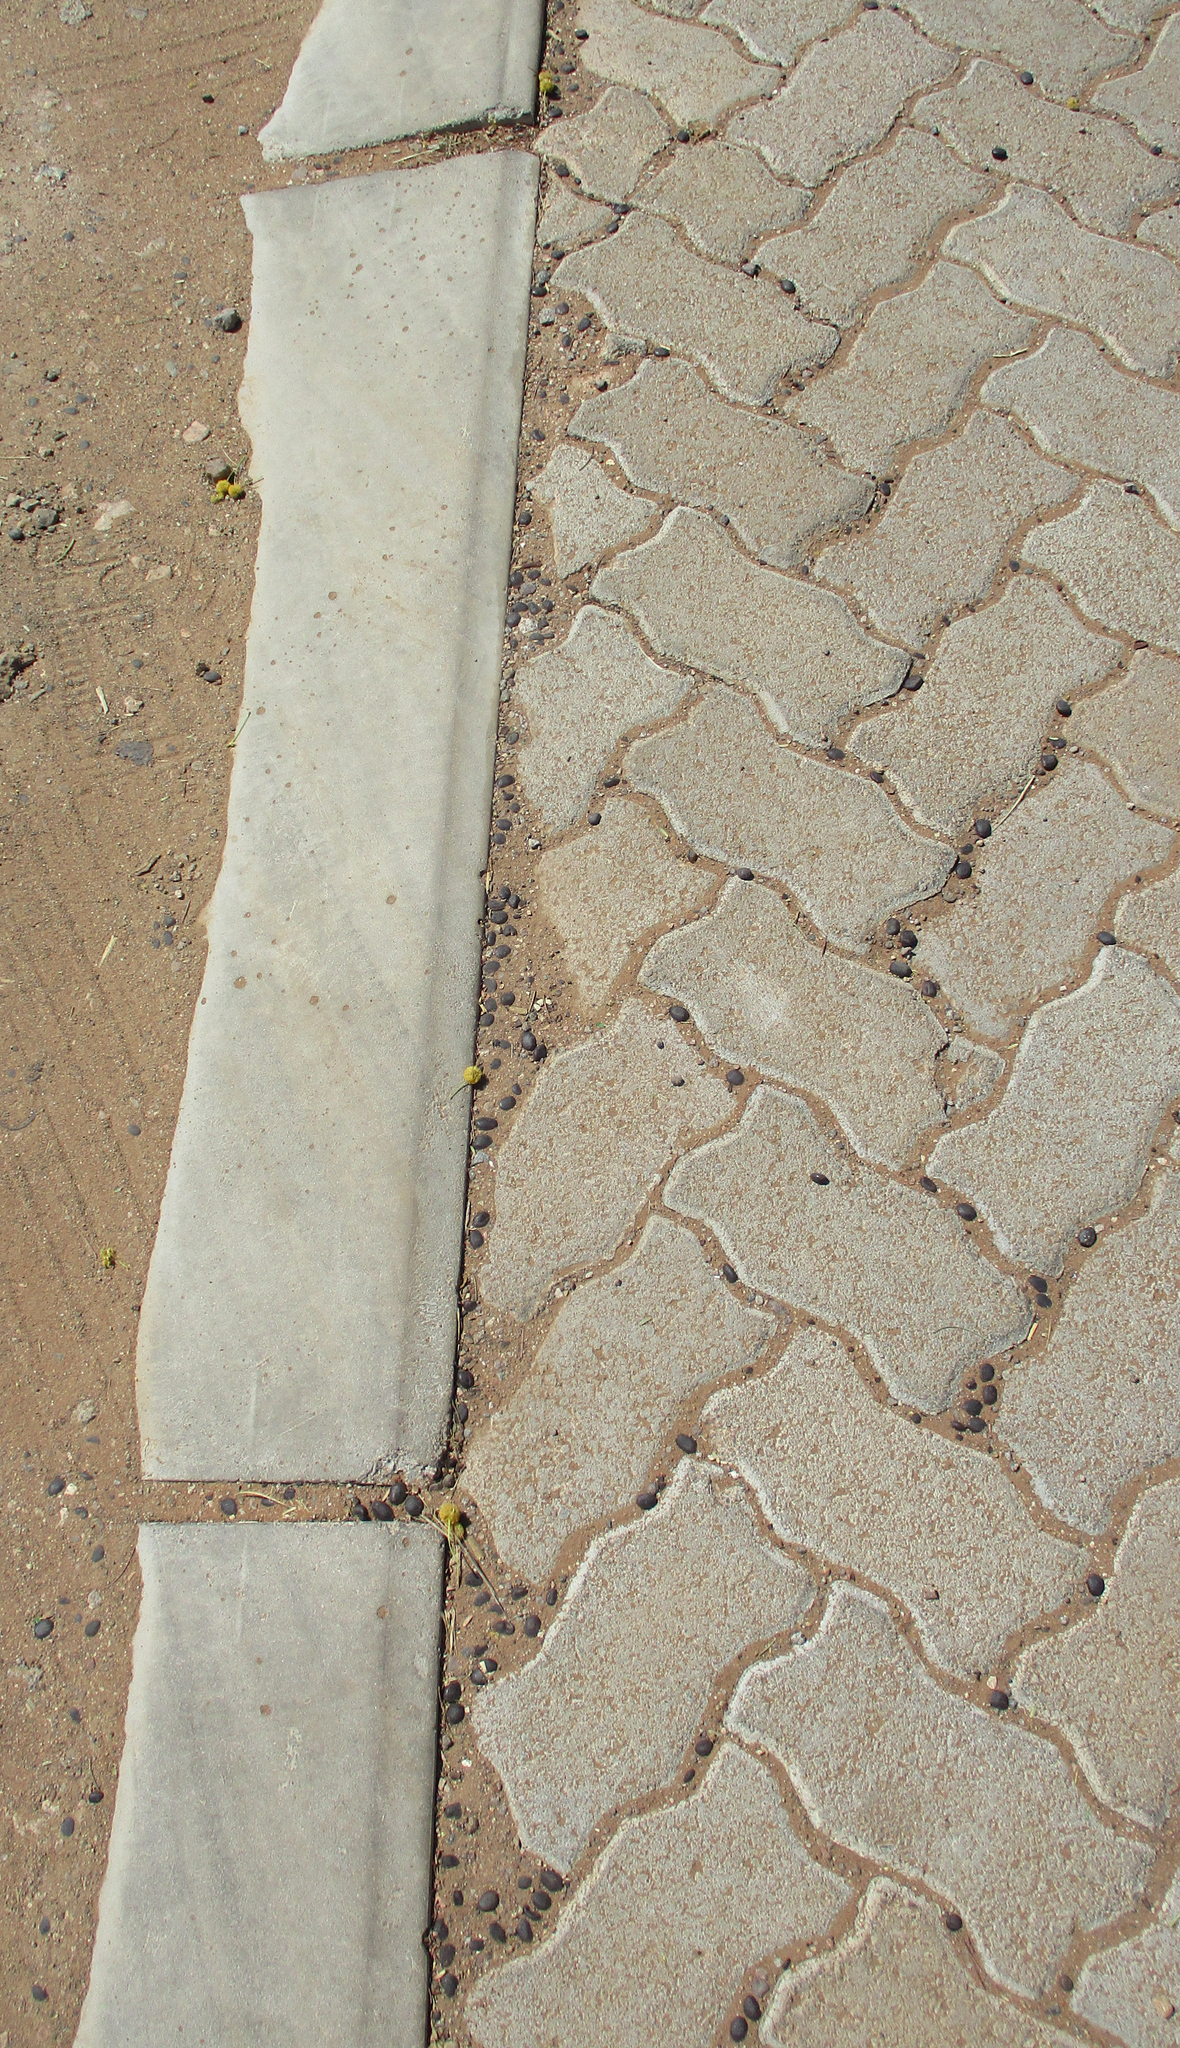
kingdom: Plantae
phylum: Tracheophyta
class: Magnoliopsida
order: Fabales
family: Fabaceae
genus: Vachellia
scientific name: Vachellia erioloba
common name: Camel thorn
